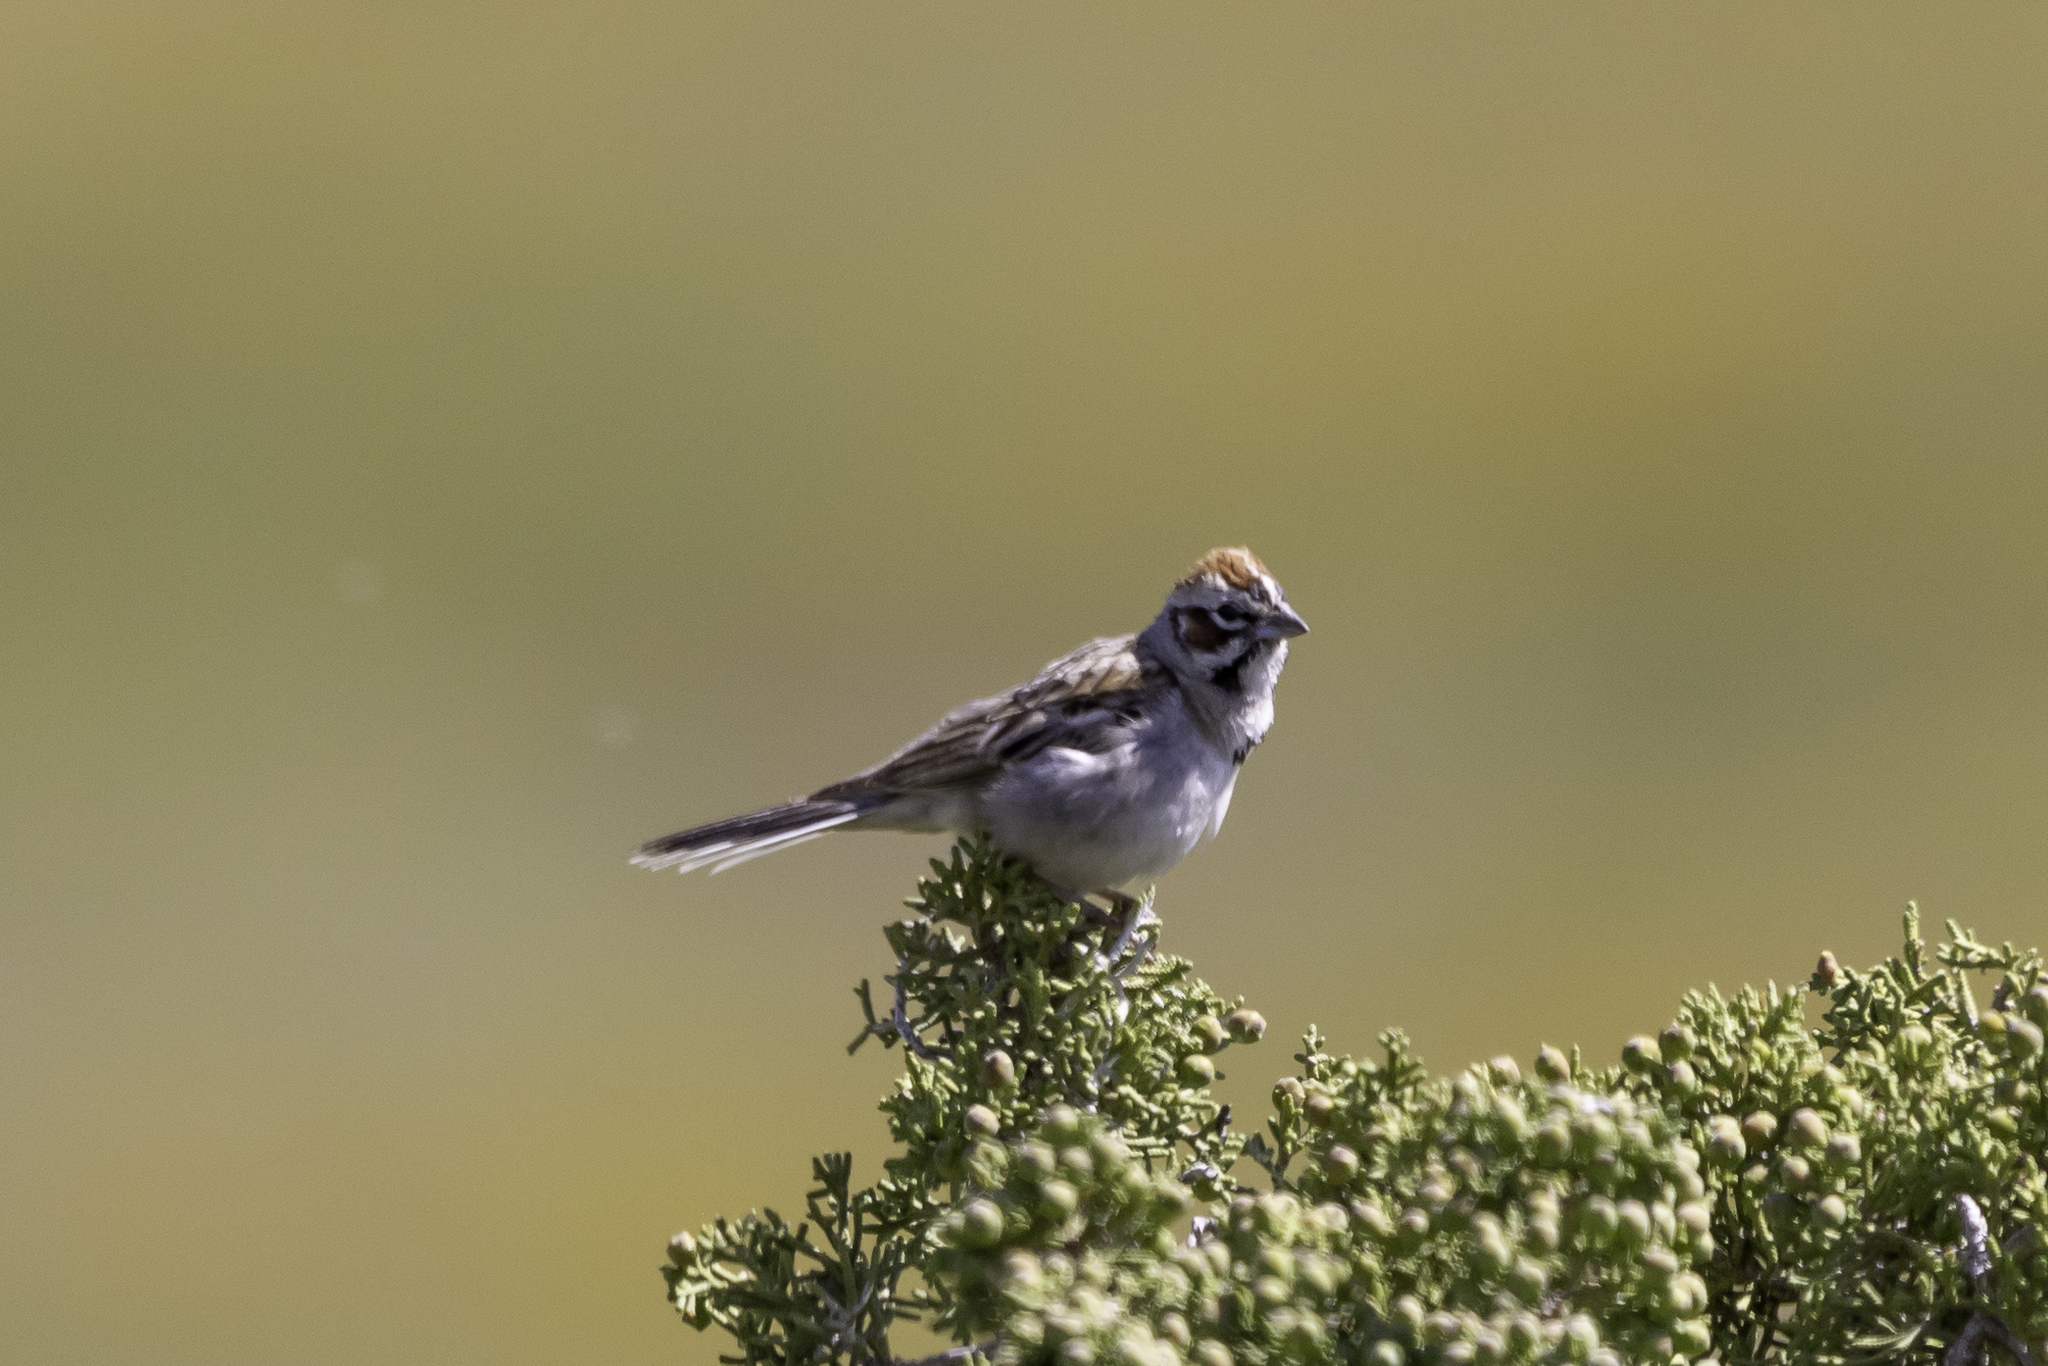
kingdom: Animalia
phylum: Chordata
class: Aves
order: Passeriformes
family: Passerellidae
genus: Chondestes
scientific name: Chondestes grammacus
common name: Lark sparrow
